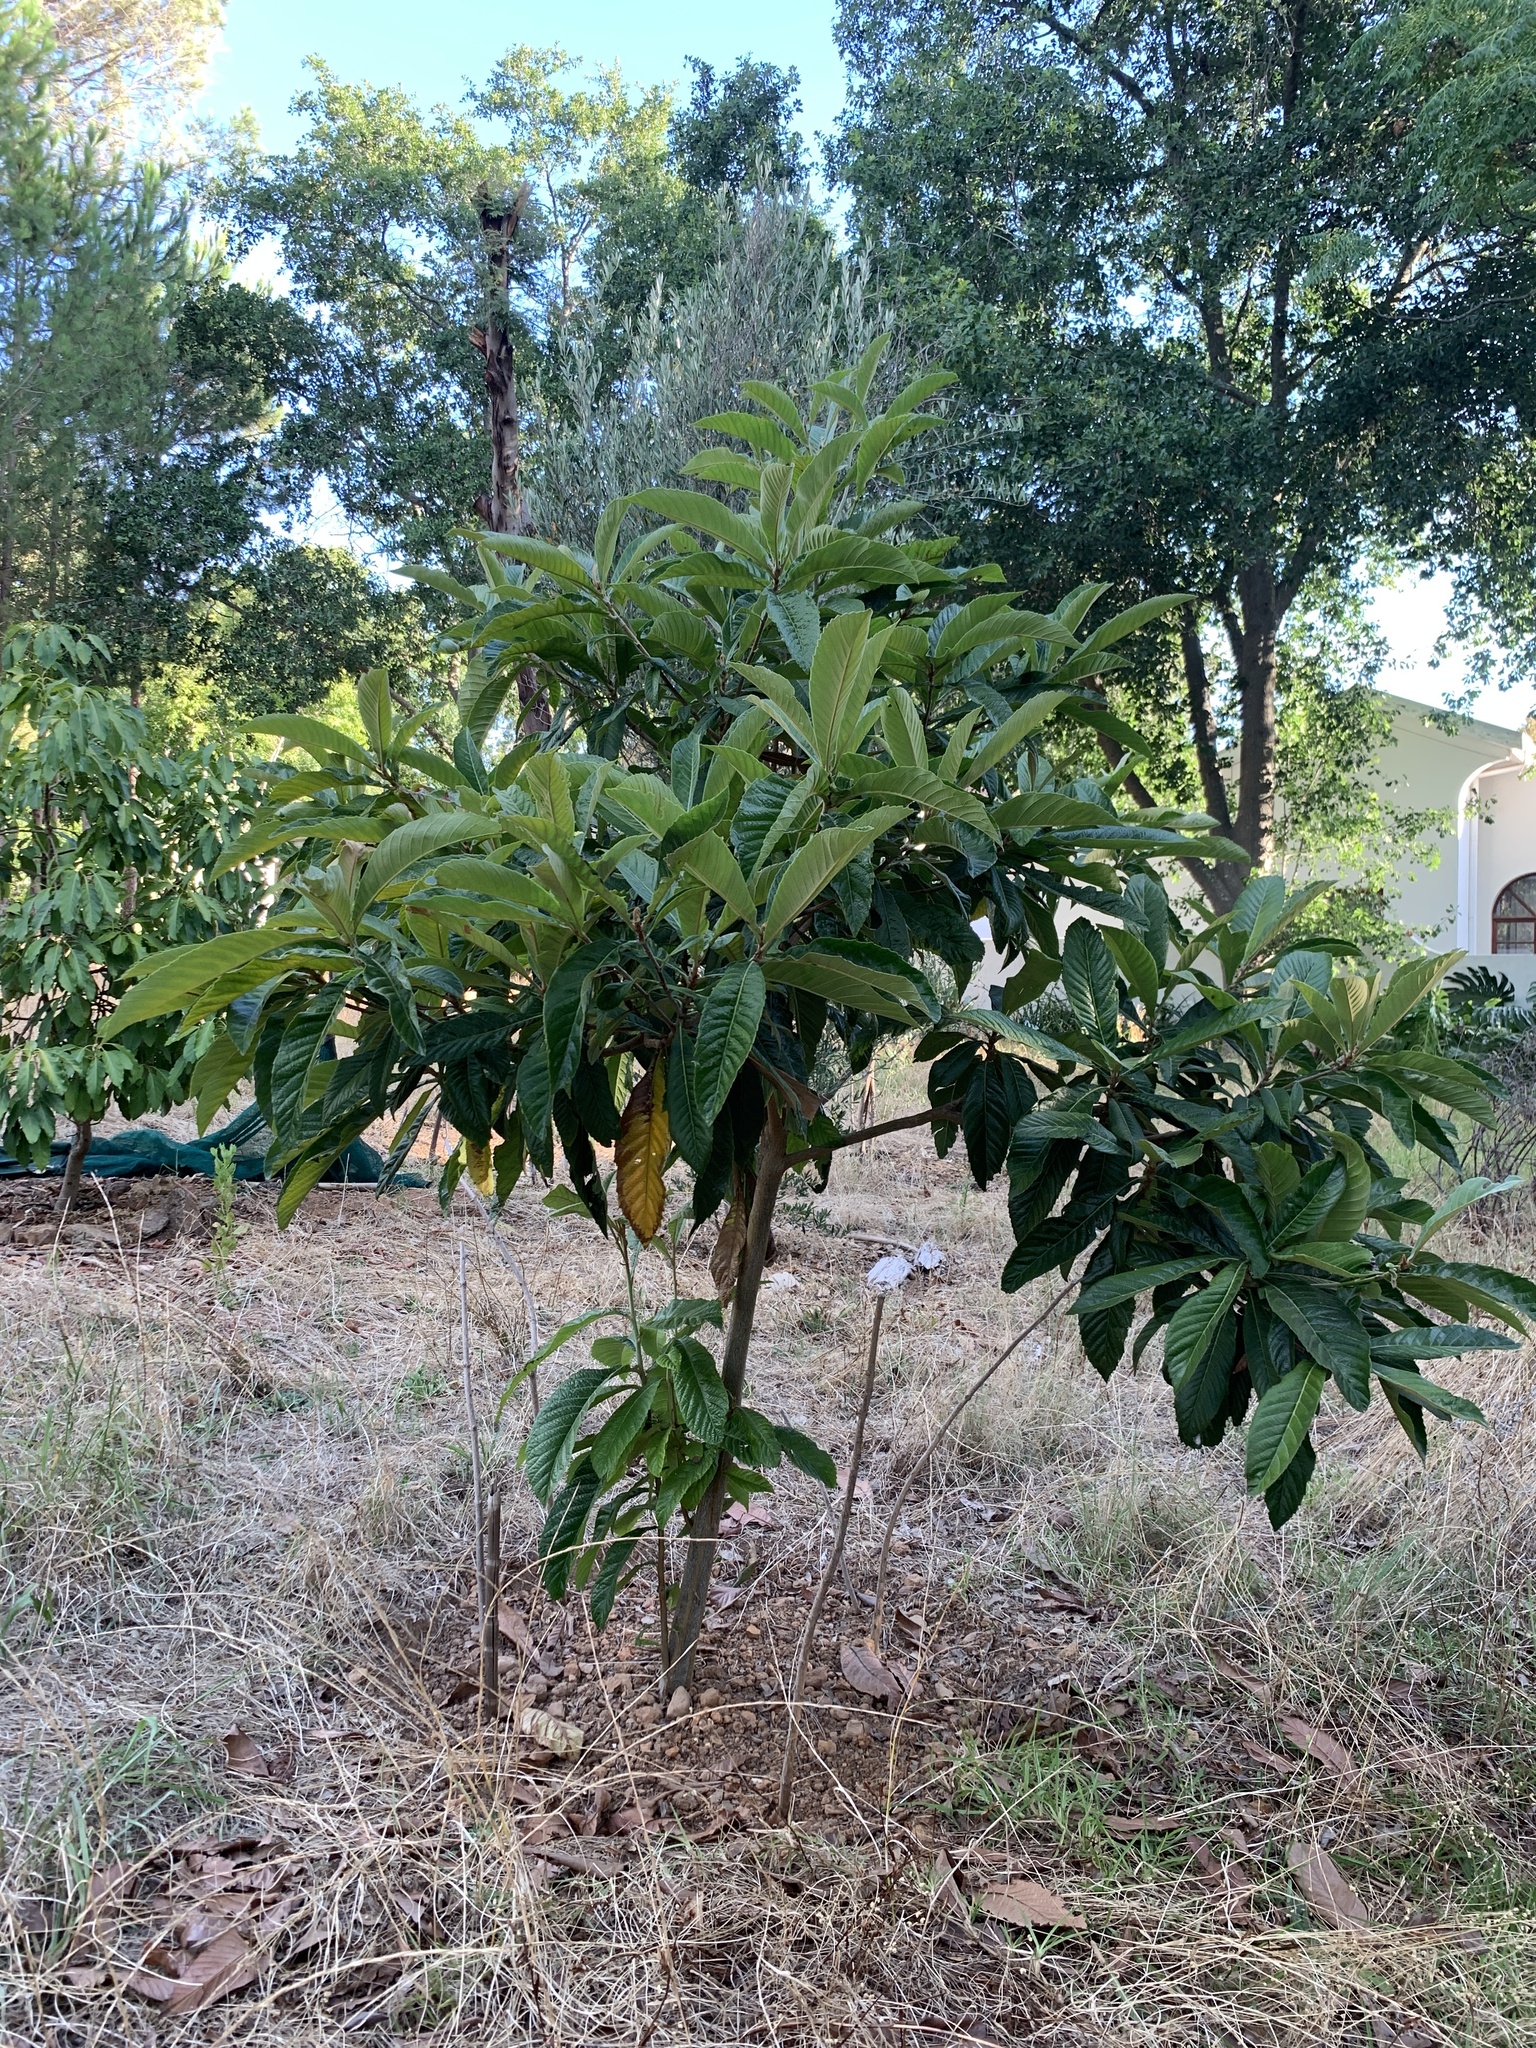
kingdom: Plantae
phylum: Tracheophyta
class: Magnoliopsida
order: Rosales
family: Rosaceae
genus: Rhaphiolepis
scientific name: Rhaphiolepis bibas
